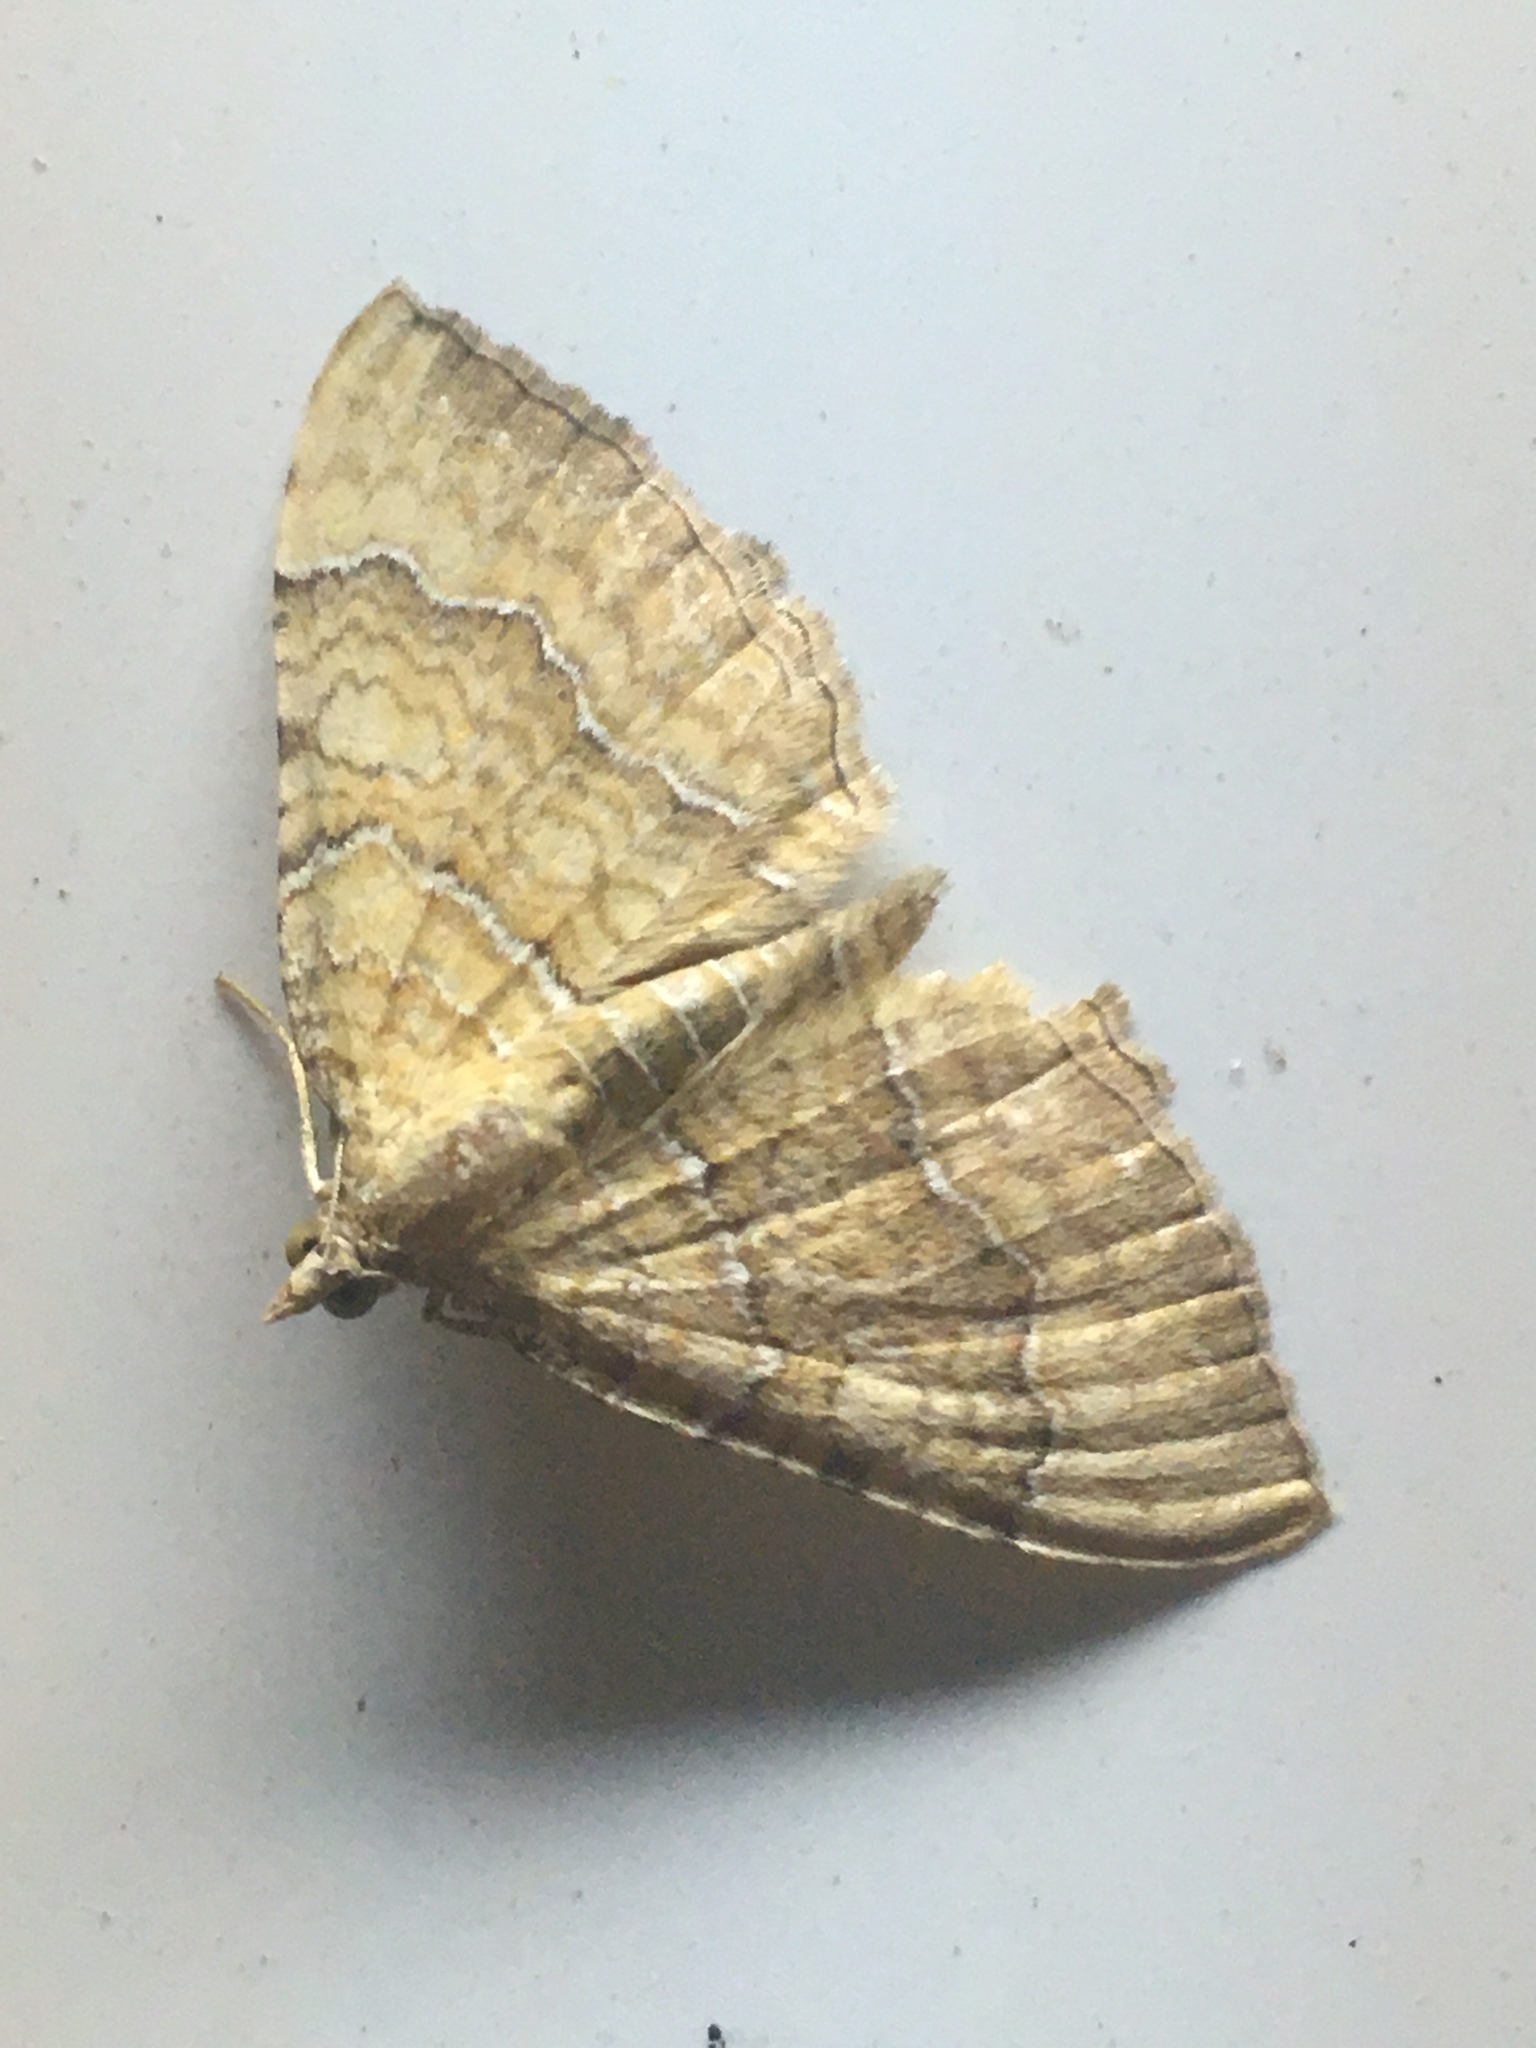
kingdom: Animalia
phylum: Arthropoda
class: Insecta
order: Lepidoptera
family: Geometridae
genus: Camptogramma
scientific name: Camptogramma bilineata
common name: Yellow shell
